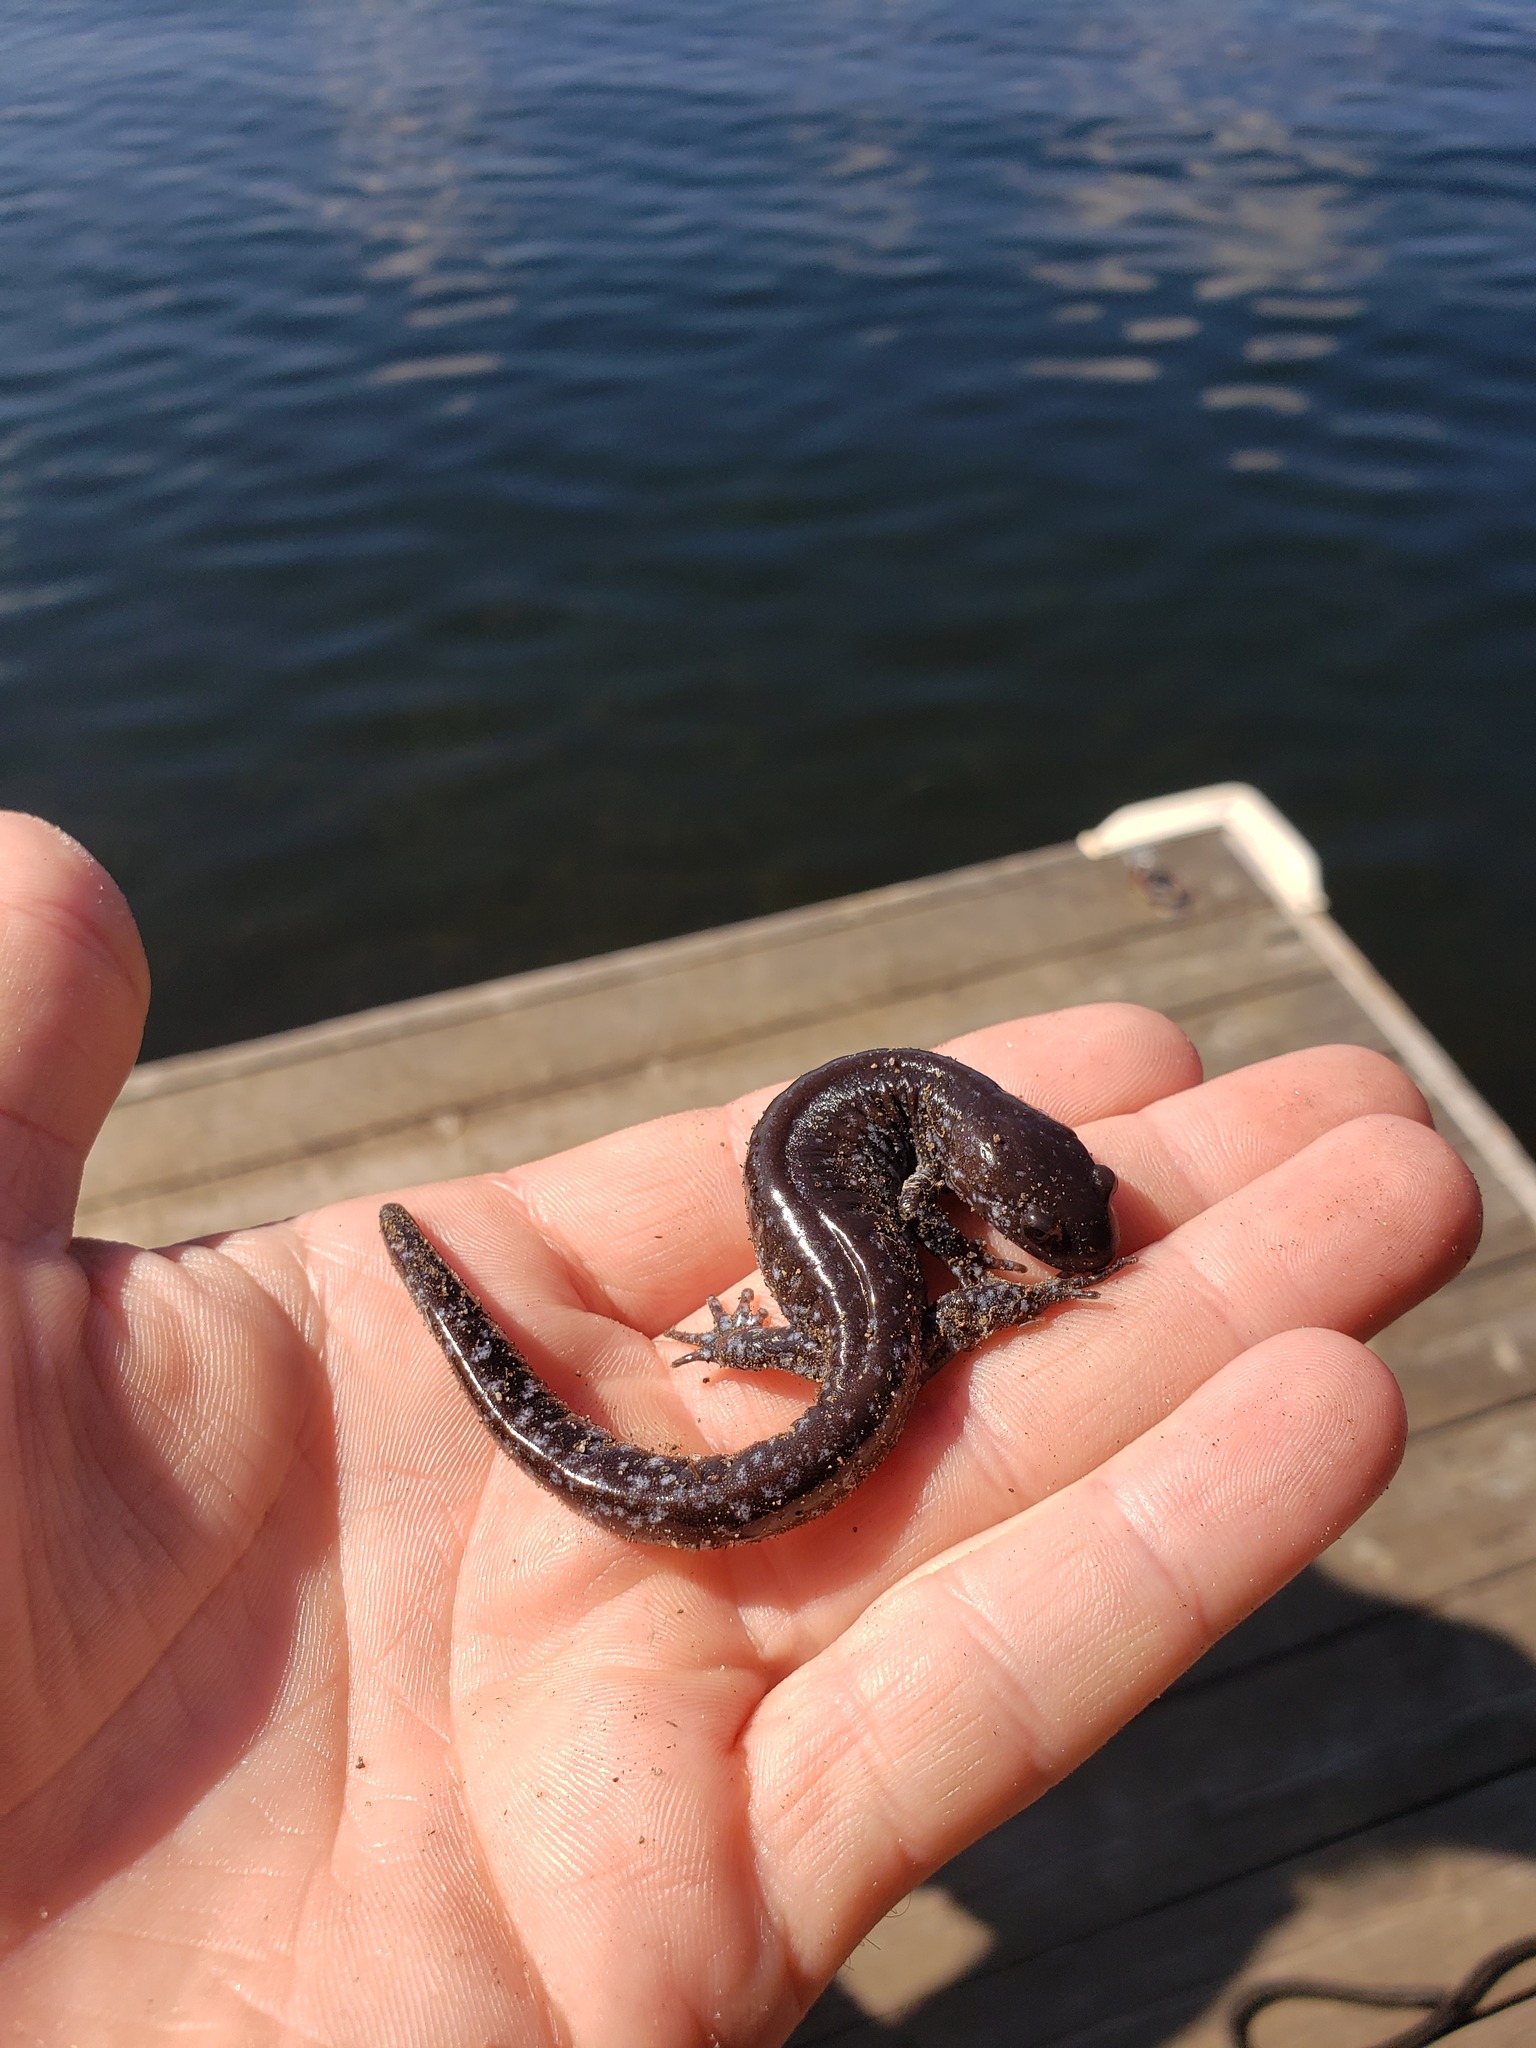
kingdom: Animalia
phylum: Chordata
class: Amphibia
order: Caudata
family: Ambystomatidae
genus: Ambystoma
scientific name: Ambystoma laterale
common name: Blue-spotted salamander
